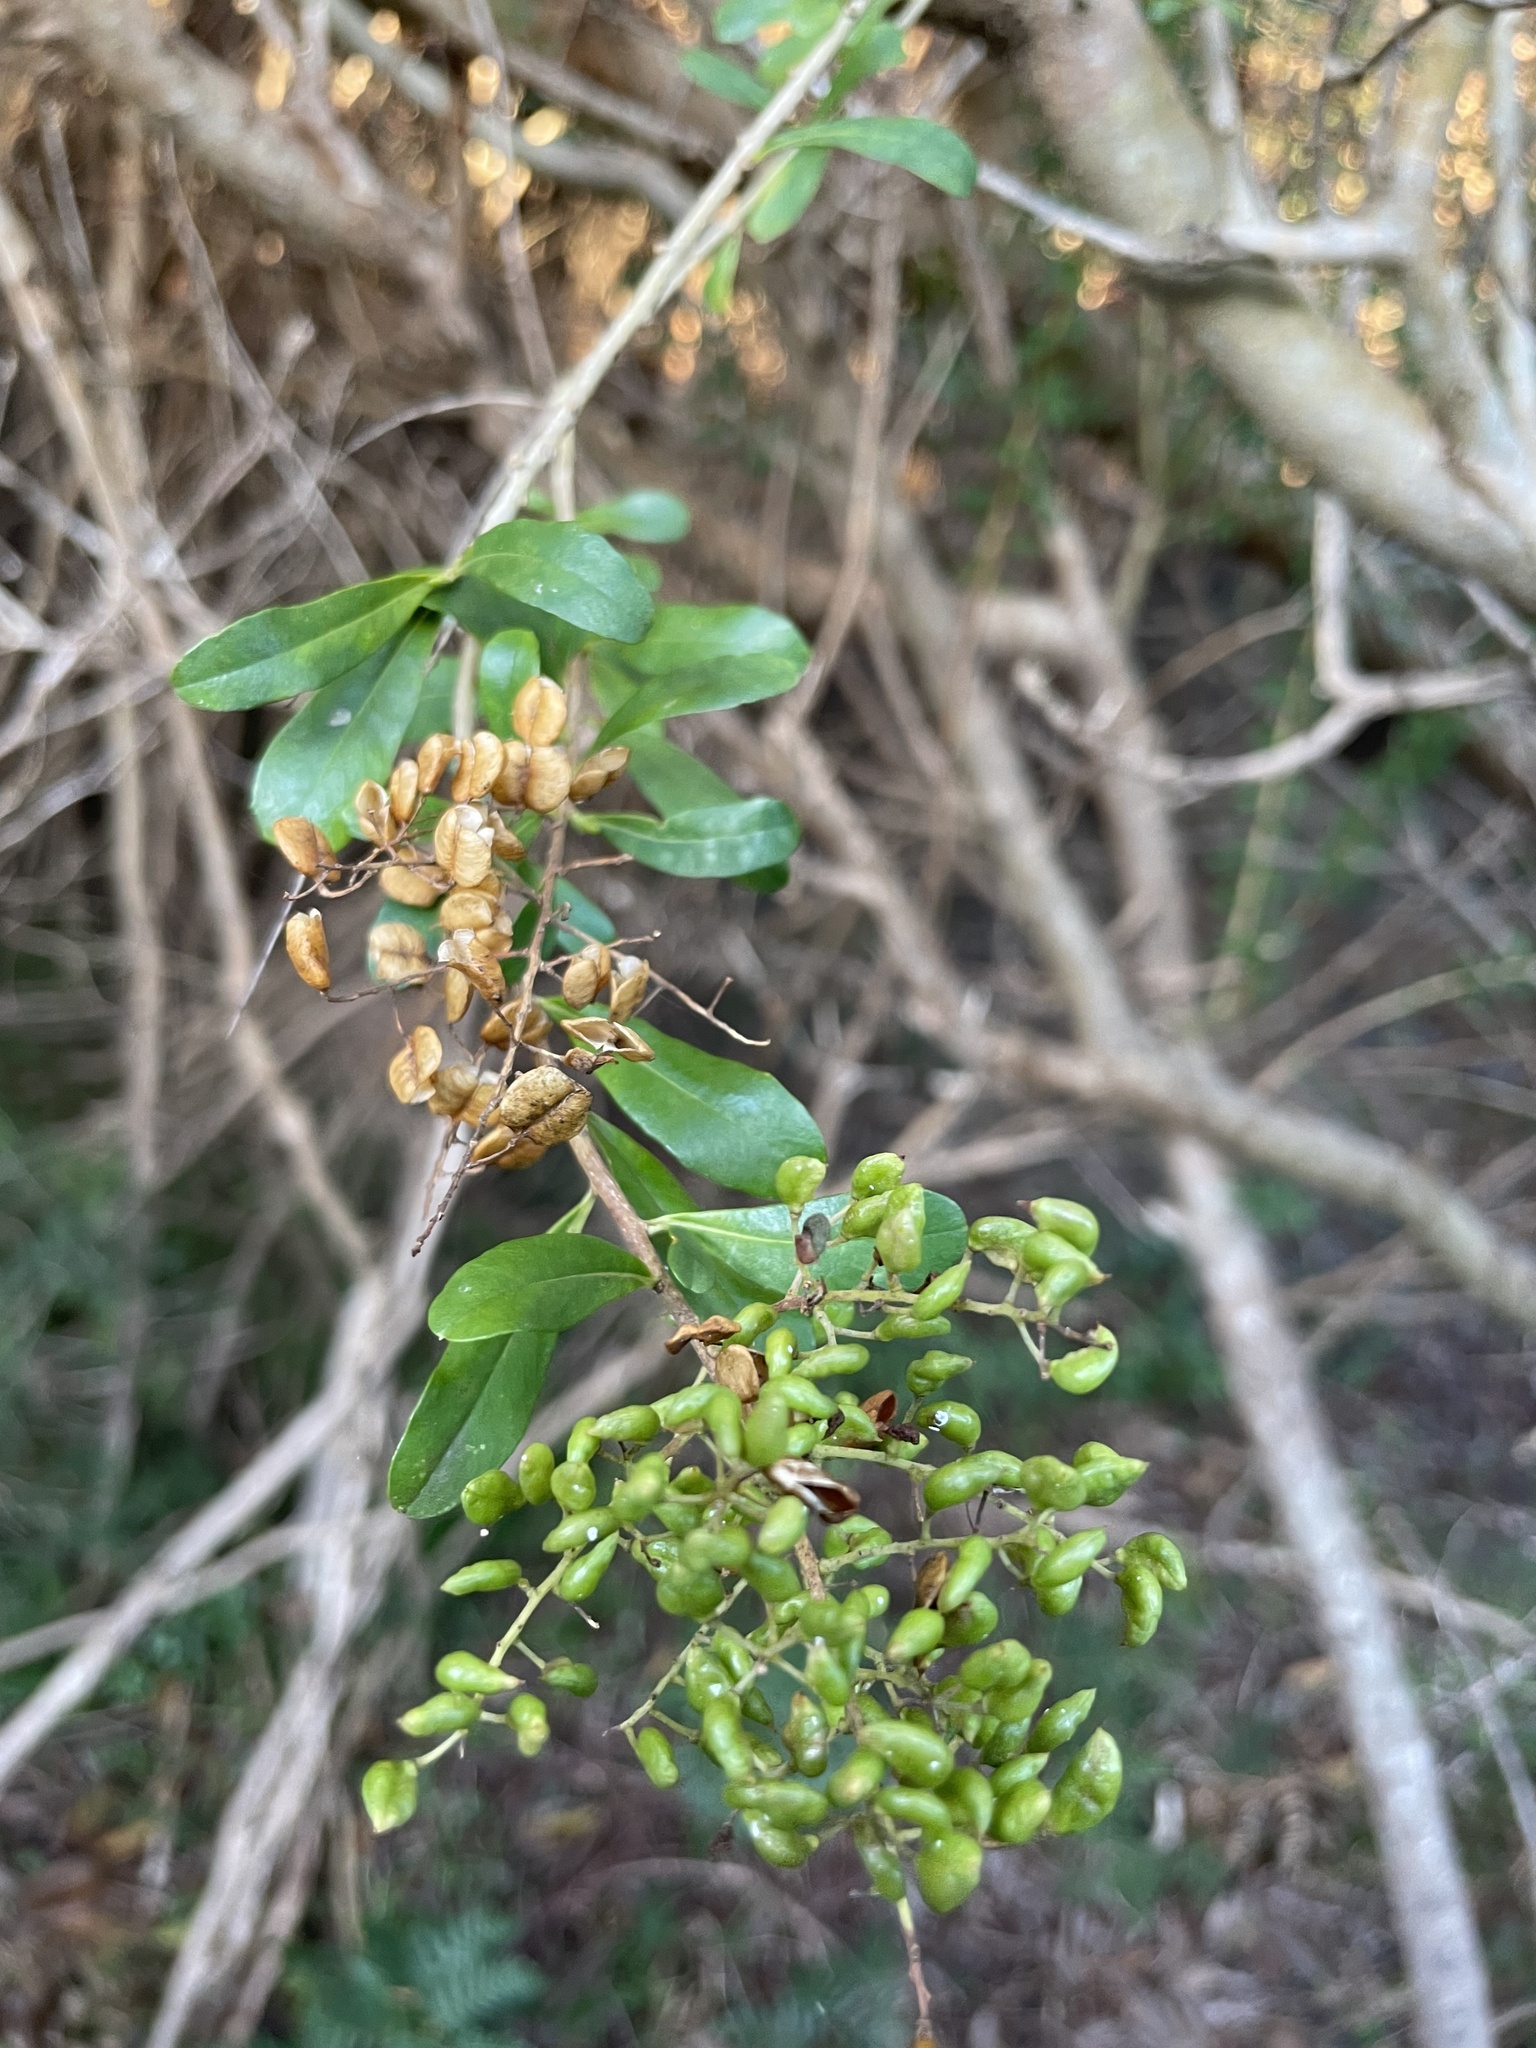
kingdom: Plantae
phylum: Tracheophyta
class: Magnoliopsida
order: Apiales
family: Pittosporaceae
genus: Bursaria
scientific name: Bursaria spinosa
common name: Australian blackthorn
